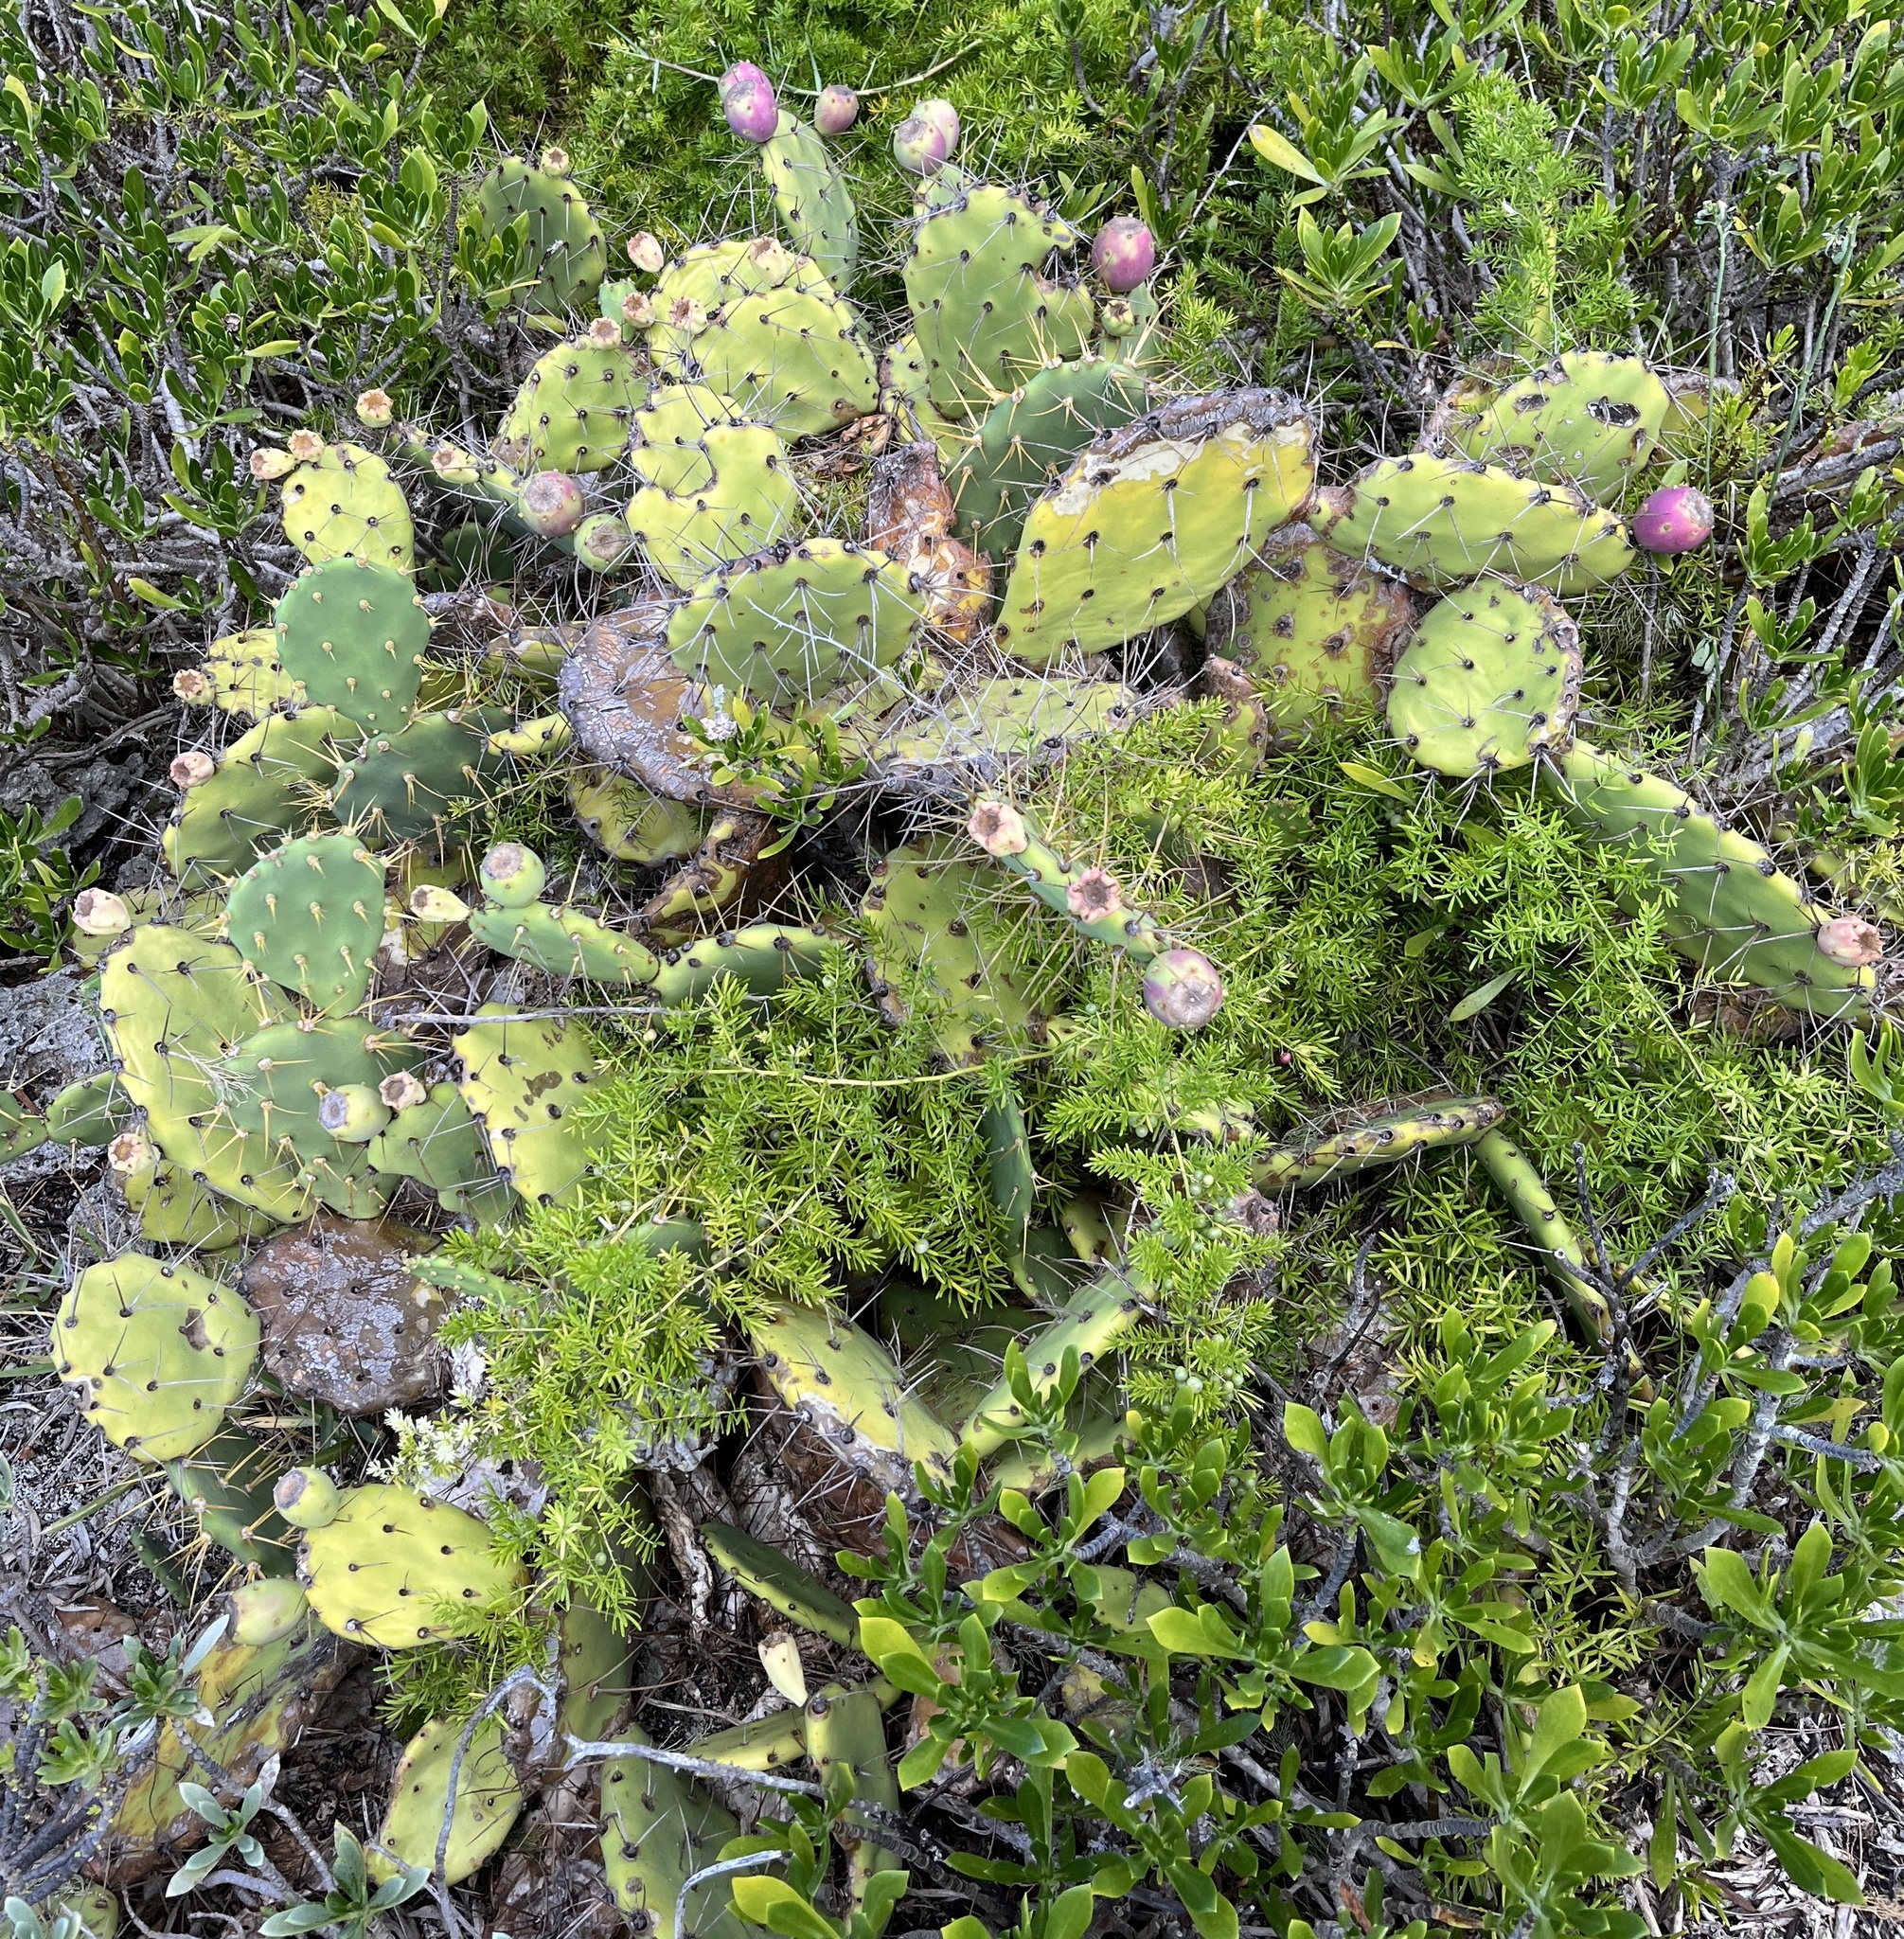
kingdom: Plantae
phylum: Tracheophyta
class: Magnoliopsida
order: Caryophyllales
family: Cactaceae
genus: Opuntia
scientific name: Opuntia stricta
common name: Erect pricklypear
